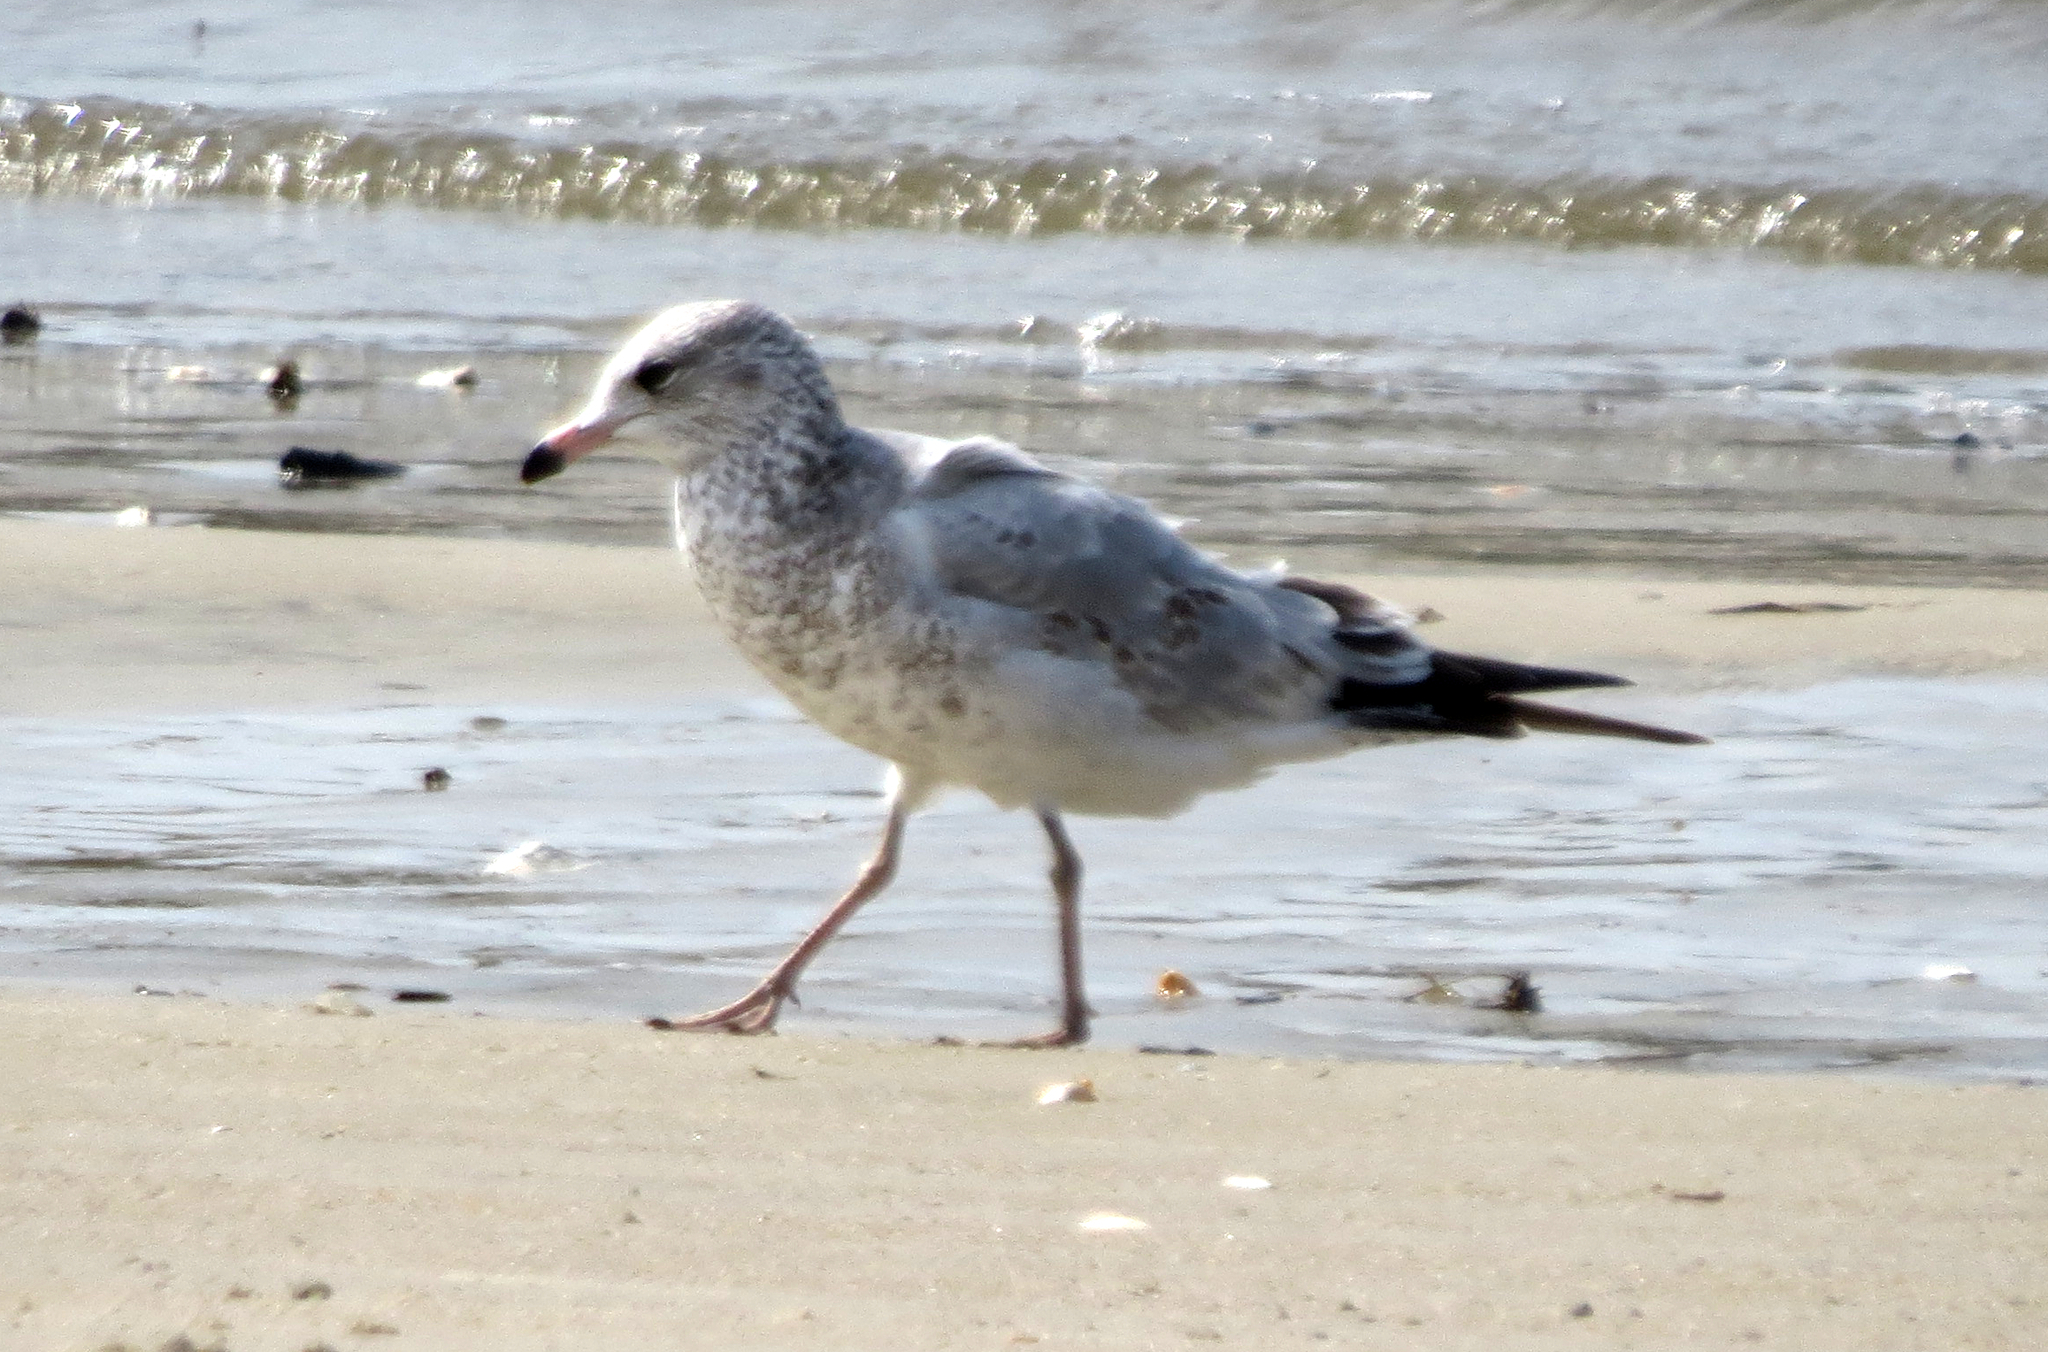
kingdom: Animalia
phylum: Chordata
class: Aves
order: Charadriiformes
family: Laridae
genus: Larus
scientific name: Larus delawarensis
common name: Ring-billed gull
